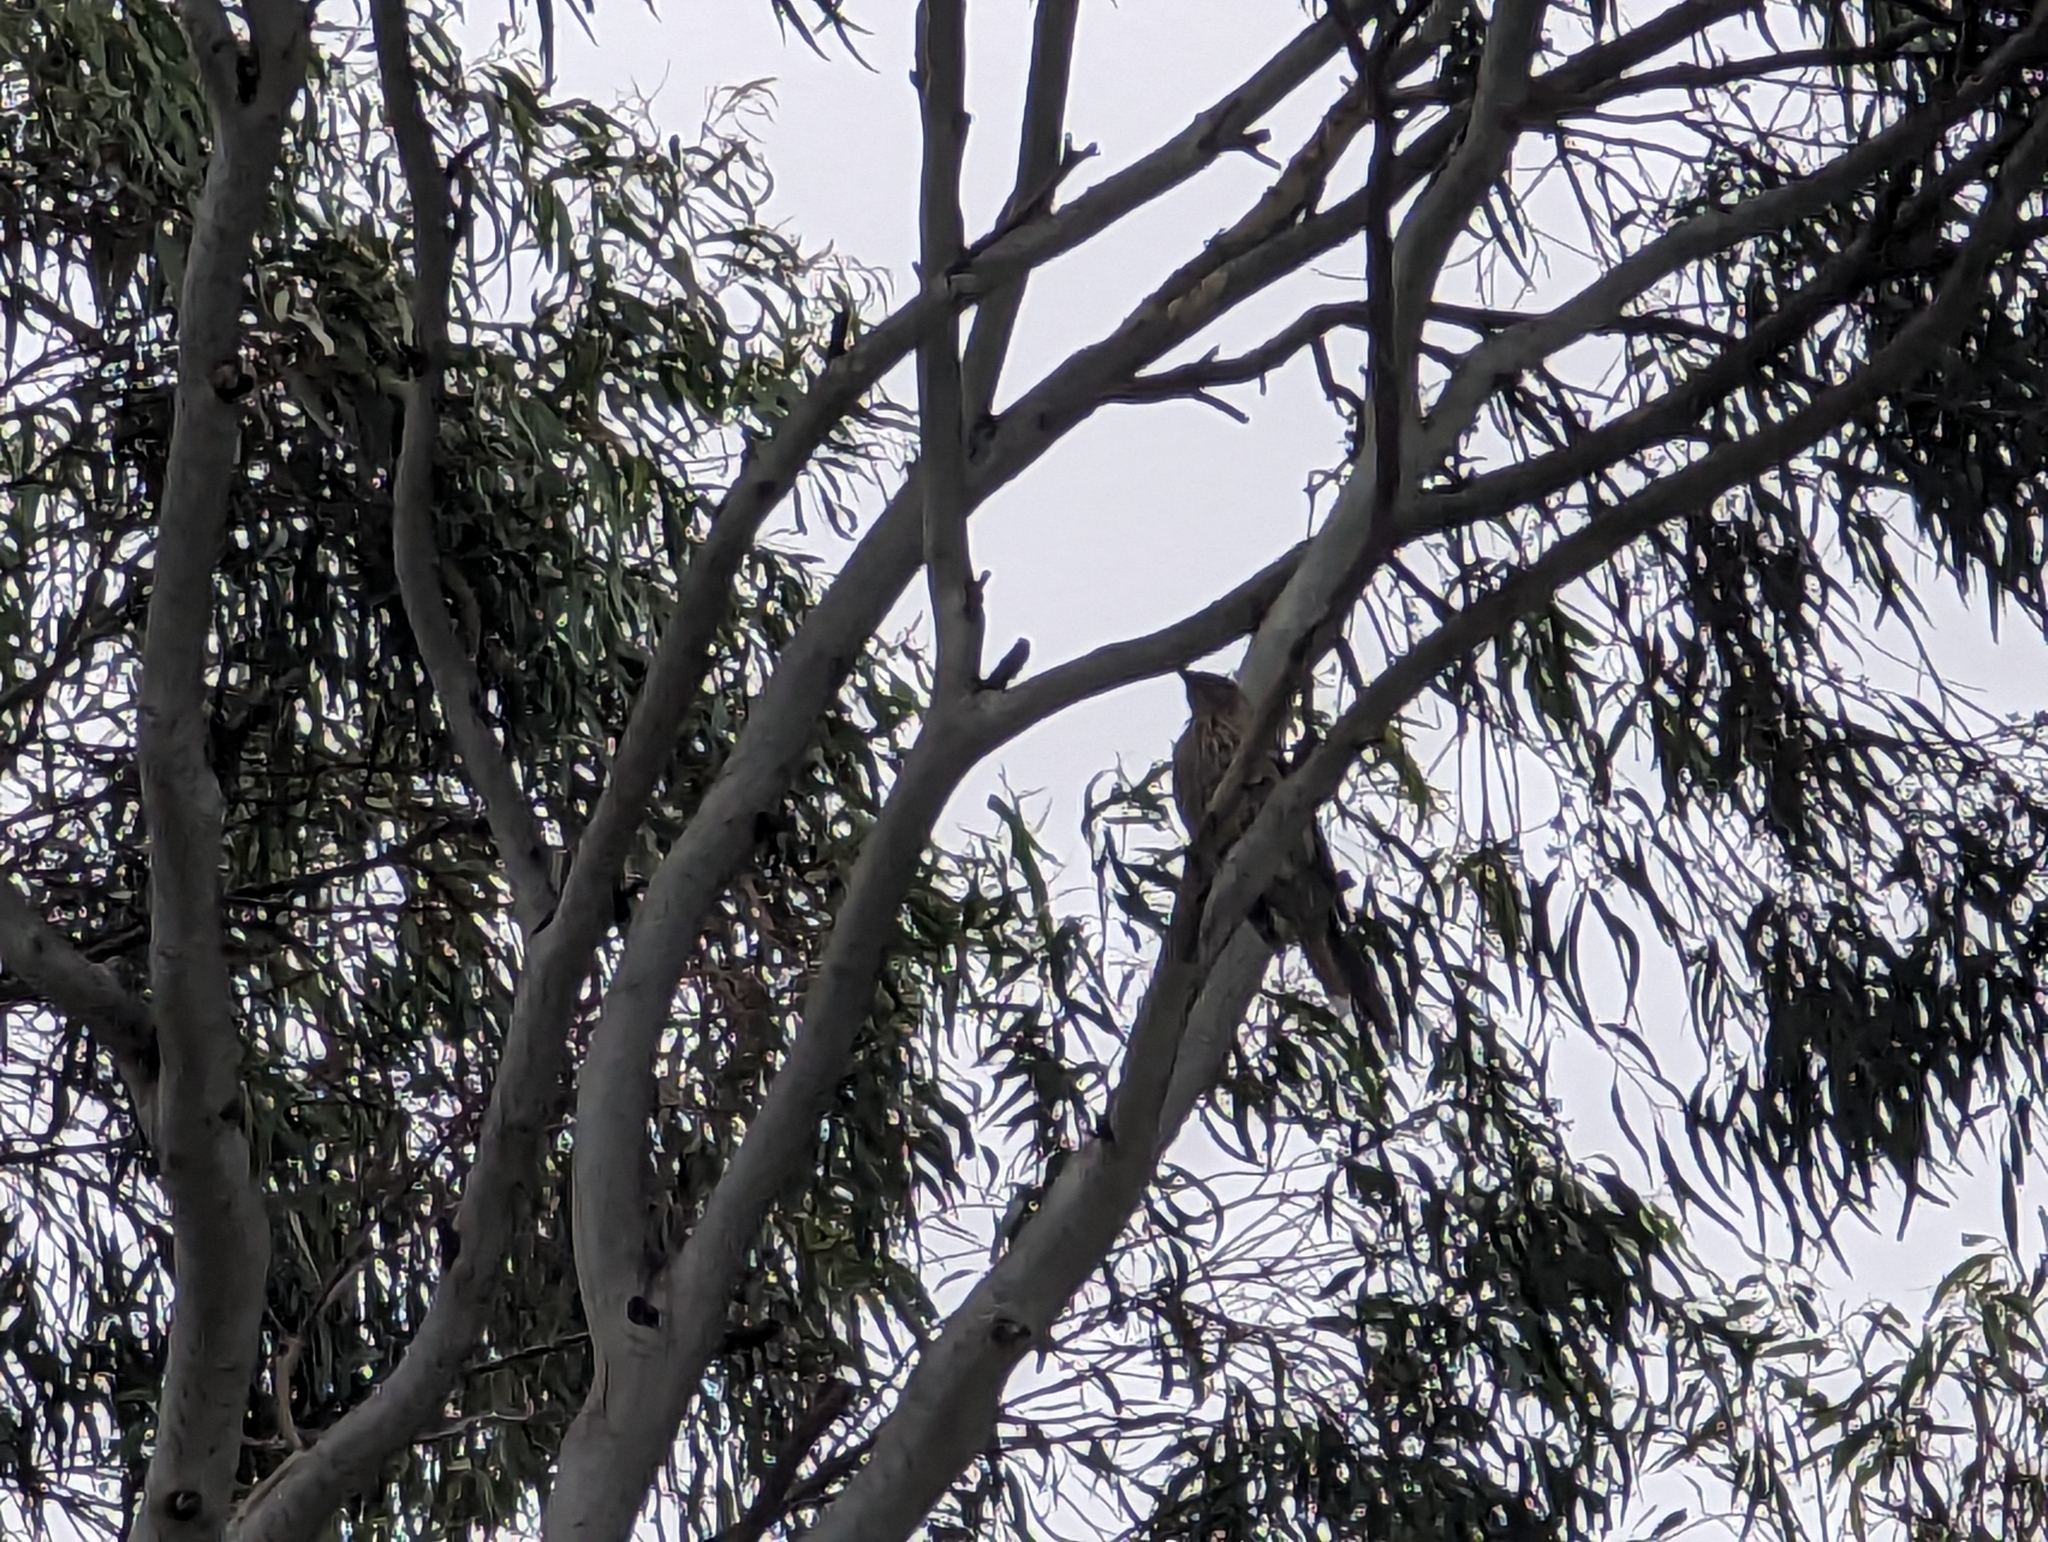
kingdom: Animalia
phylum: Chordata
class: Aves
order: Passeriformes
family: Meliphagidae
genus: Anthochaera
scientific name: Anthochaera carunculata
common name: Red wattlebird
